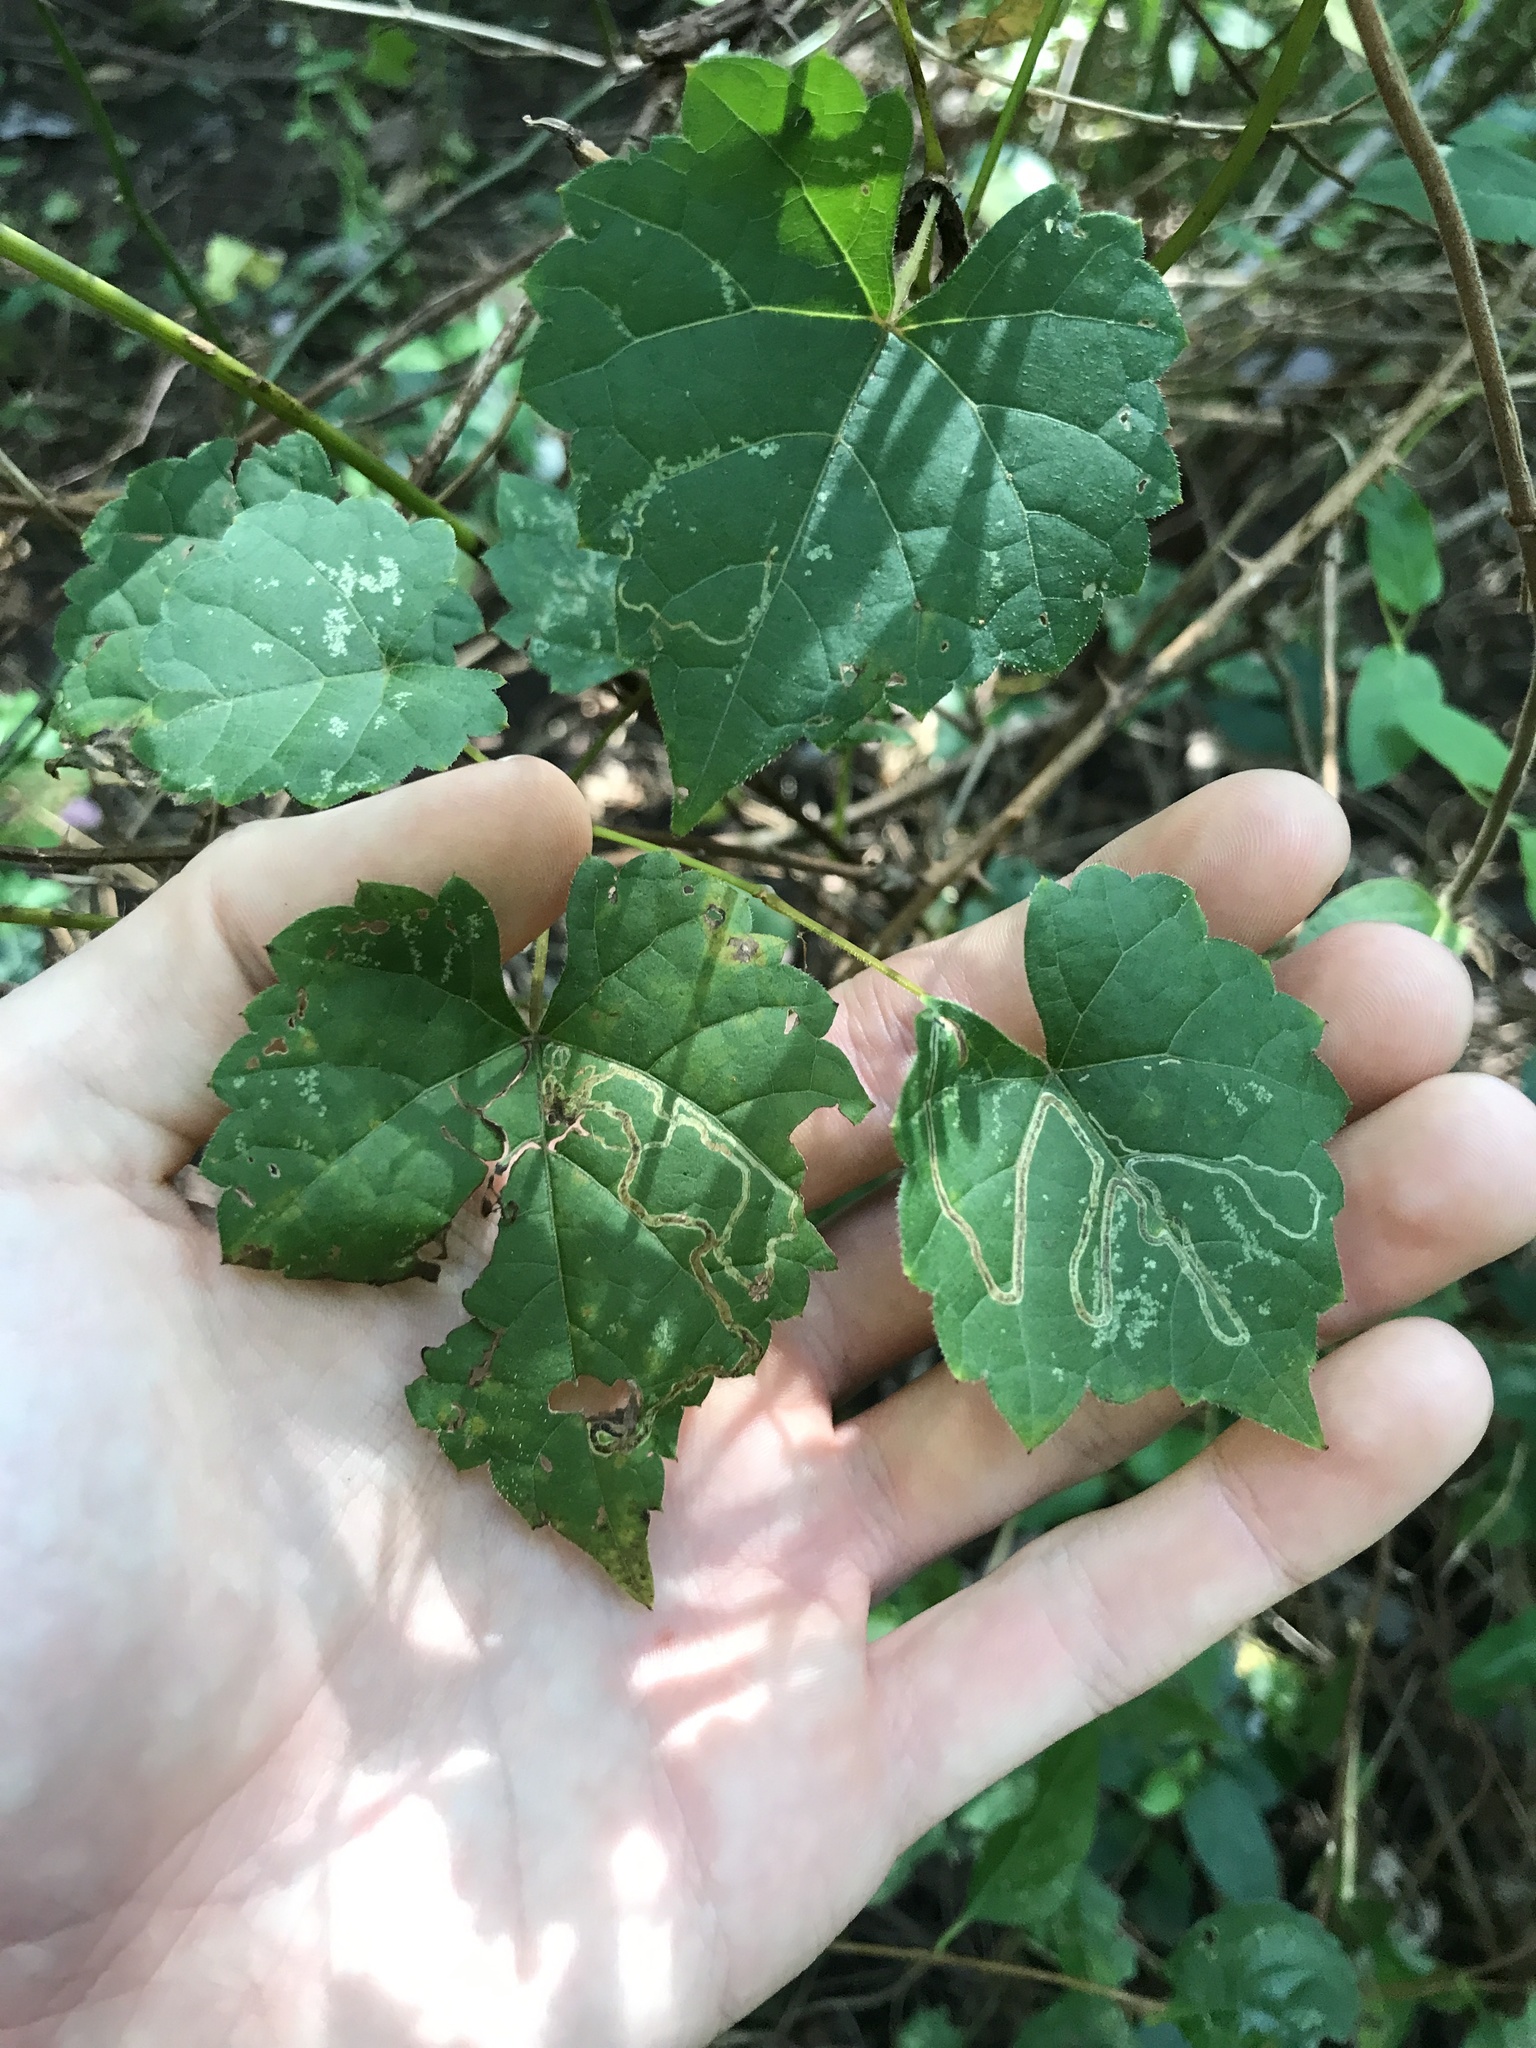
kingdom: Animalia
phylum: Arthropoda
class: Insecta
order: Lepidoptera
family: Gracillariidae
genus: Phyllocnistis
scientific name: Phyllocnistis vitifoliella
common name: Grape leaf-miner moth
